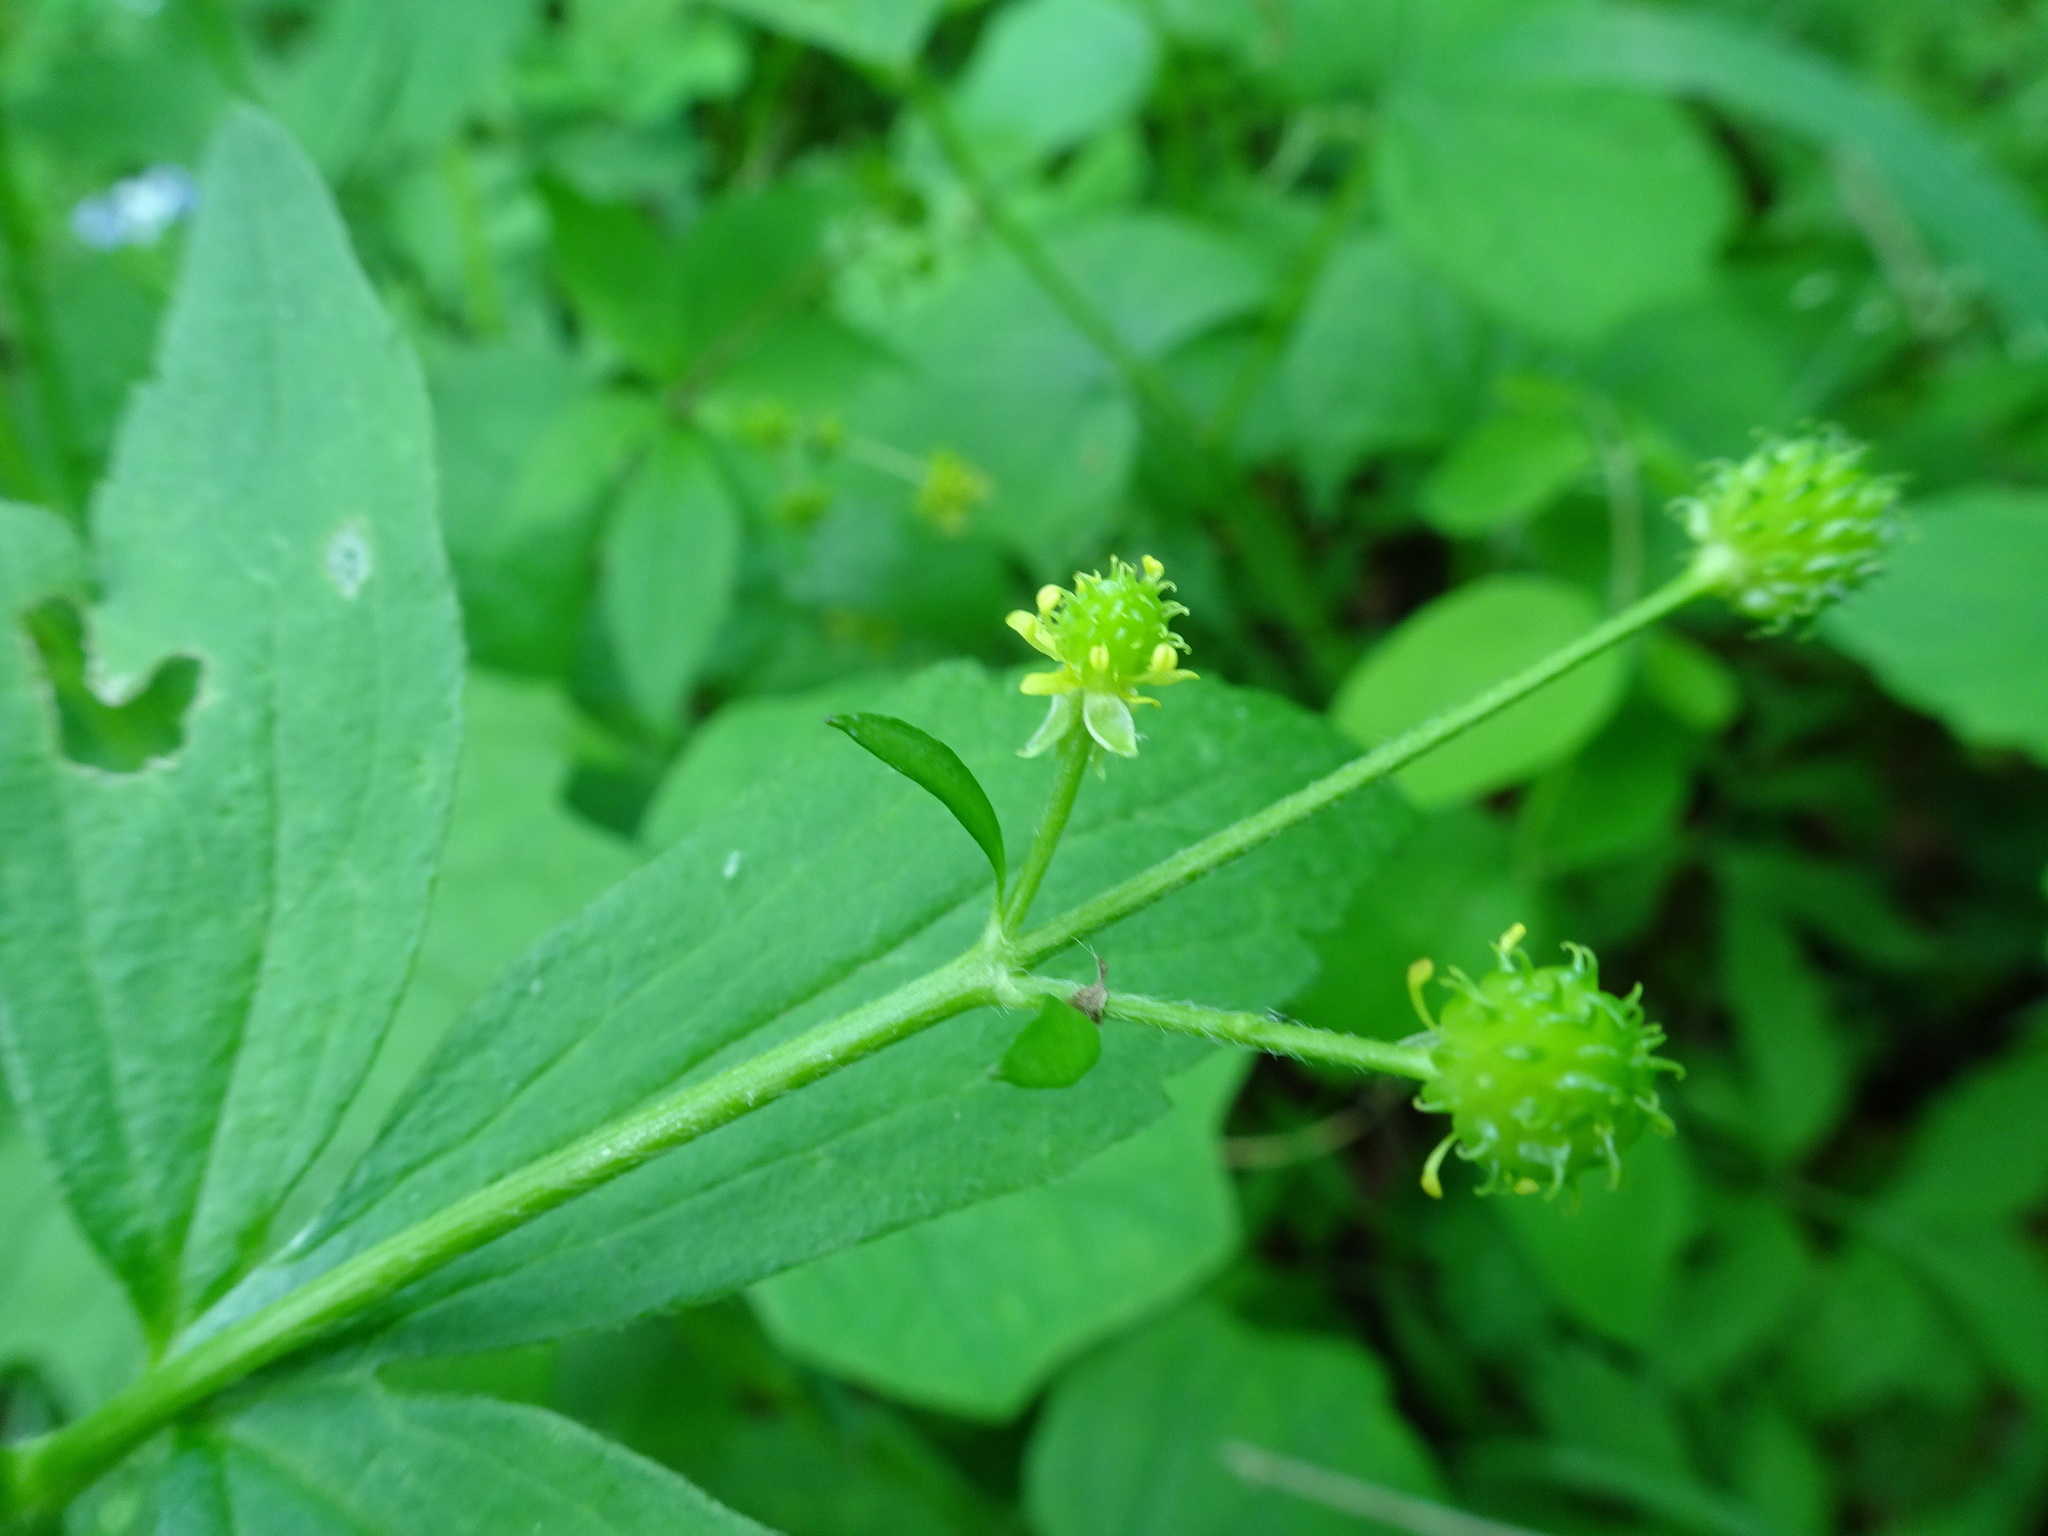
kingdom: Plantae
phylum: Tracheophyta
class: Magnoliopsida
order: Ranunculales
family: Ranunculaceae
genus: Ranunculus
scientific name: Ranunculus recurvatus
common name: Blisterwort
